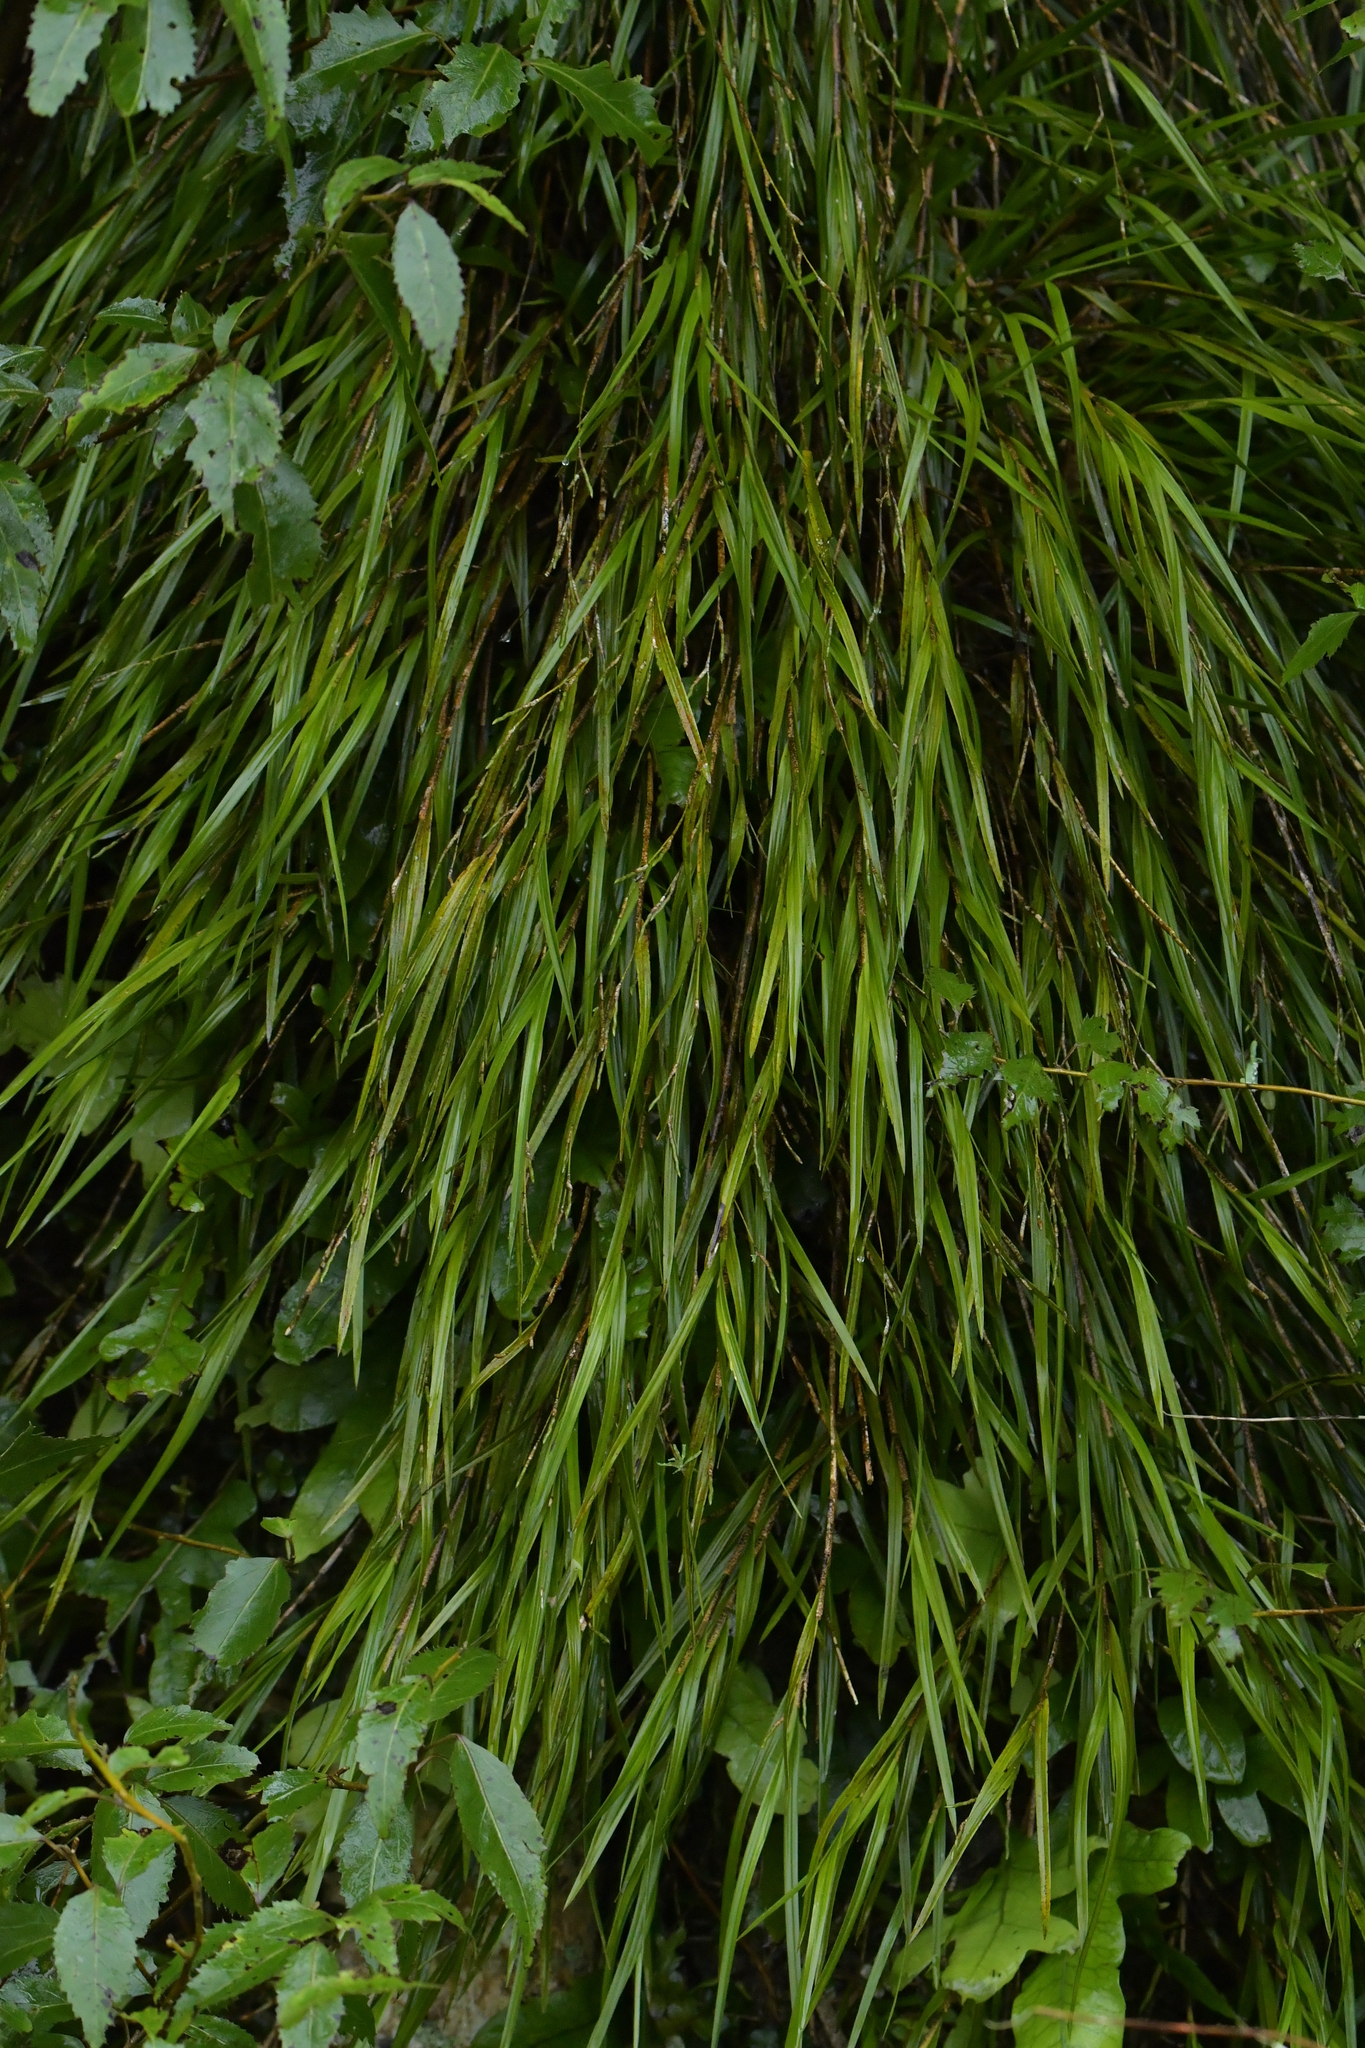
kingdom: Plantae
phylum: Tracheophyta
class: Liliopsida
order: Asparagales
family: Orchidaceae
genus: Earina
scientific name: Earina mucronata
